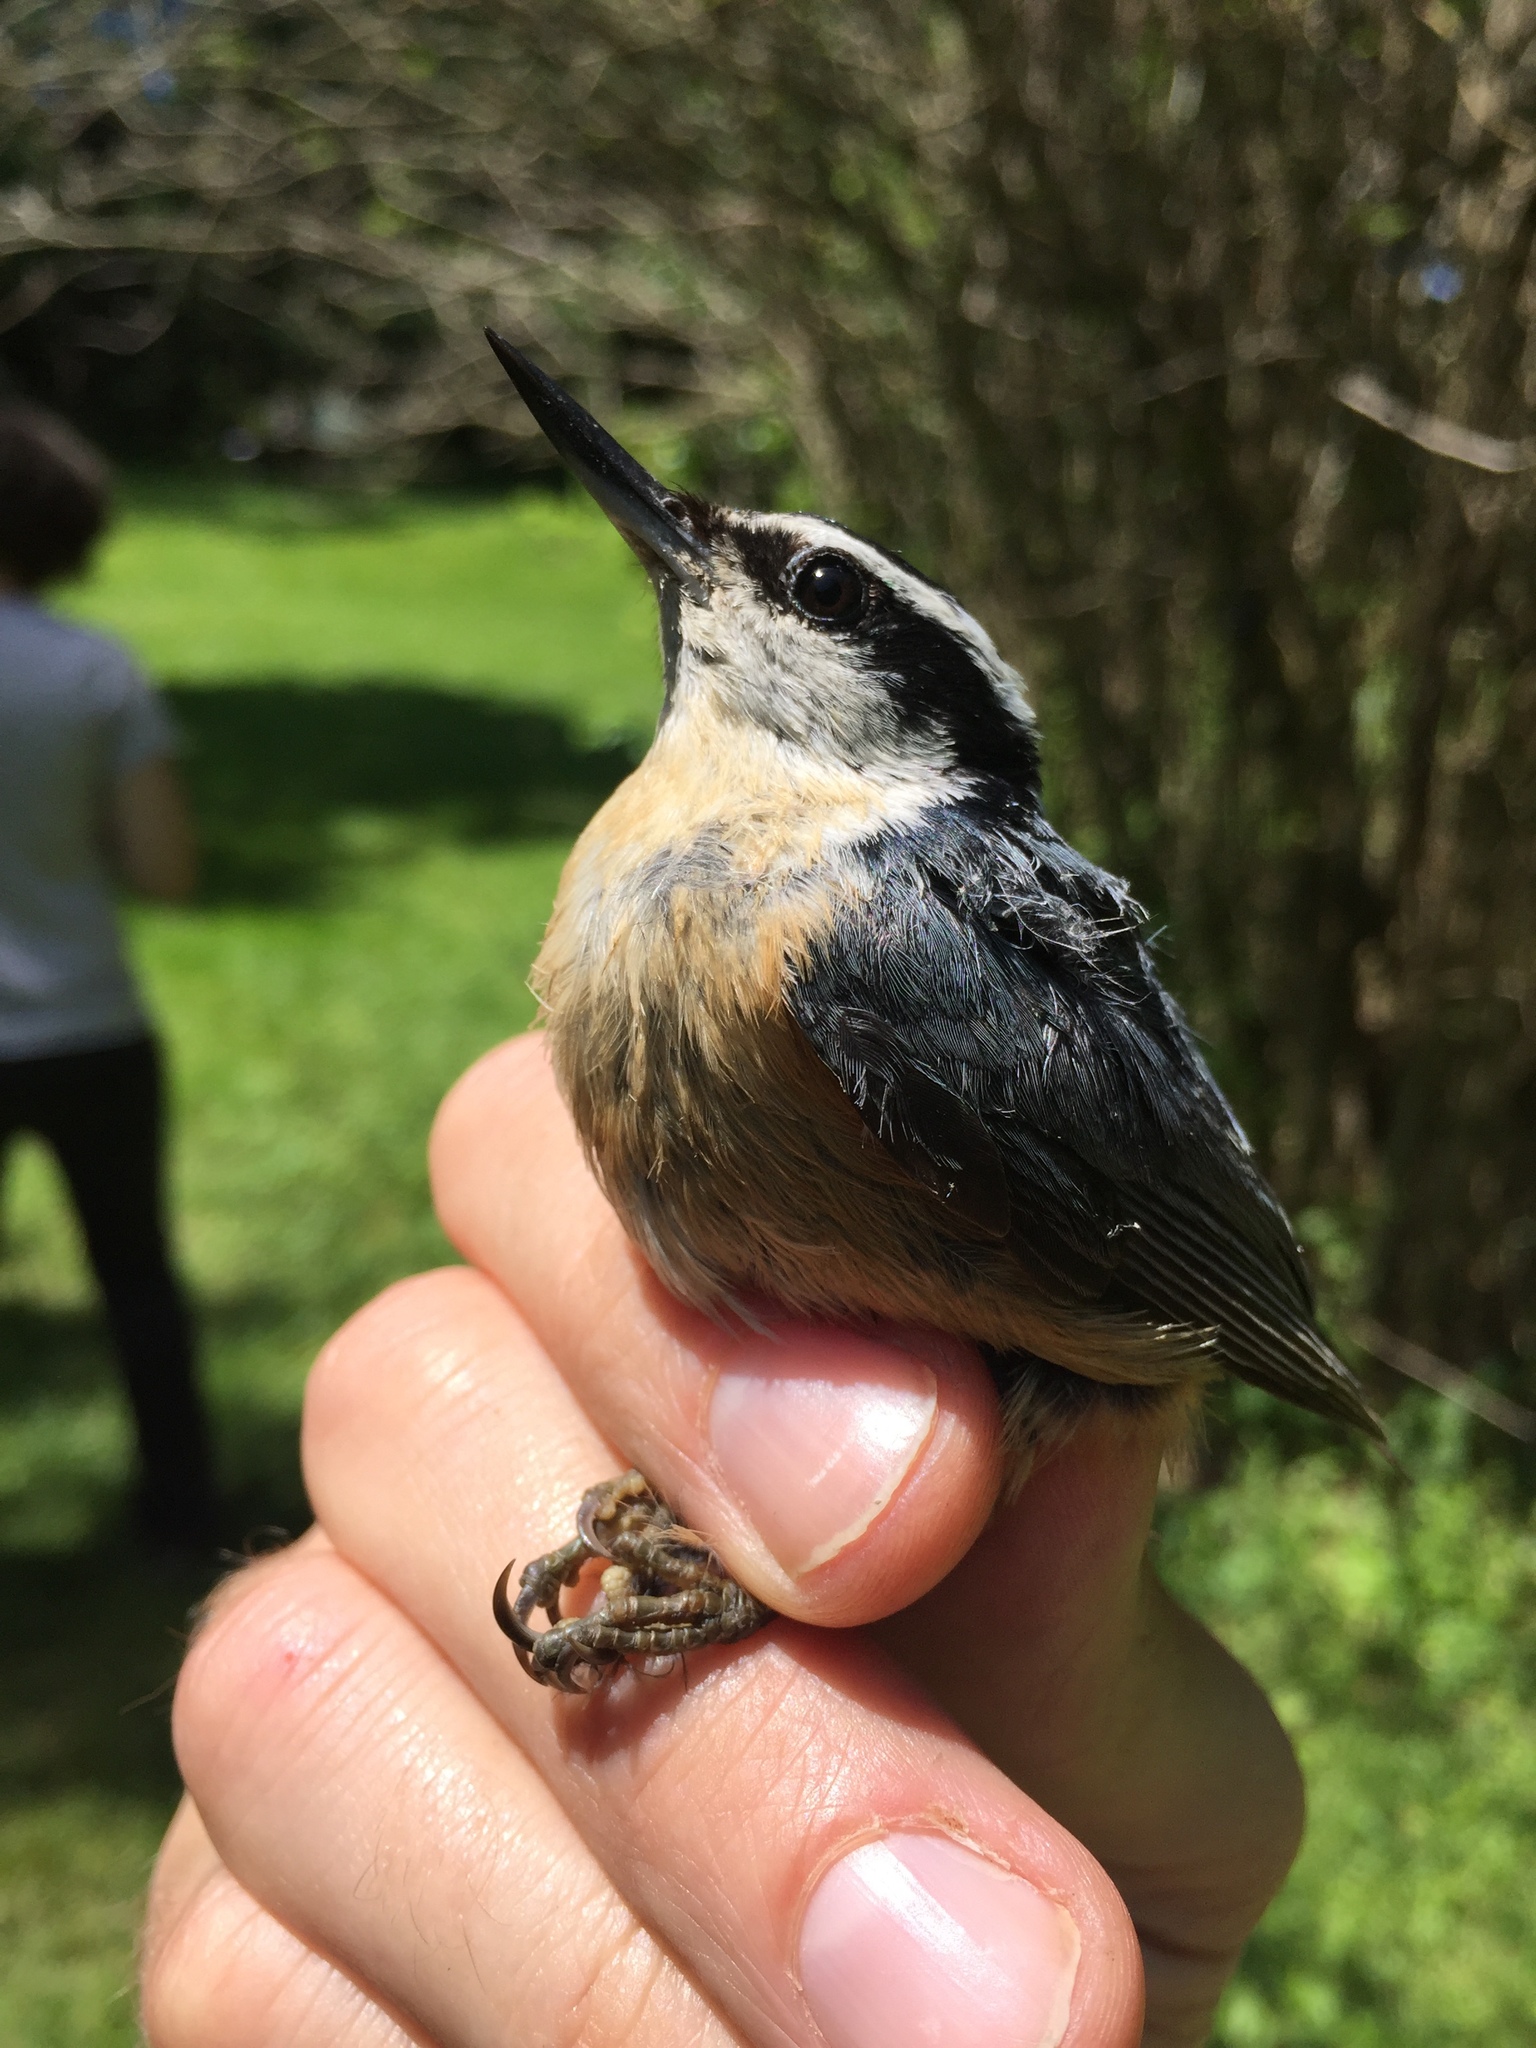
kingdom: Animalia
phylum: Chordata
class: Aves
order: Passeriformes
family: Sittidae
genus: Sitta
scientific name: Sitta canadensis
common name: Red-breasted nuthatch
